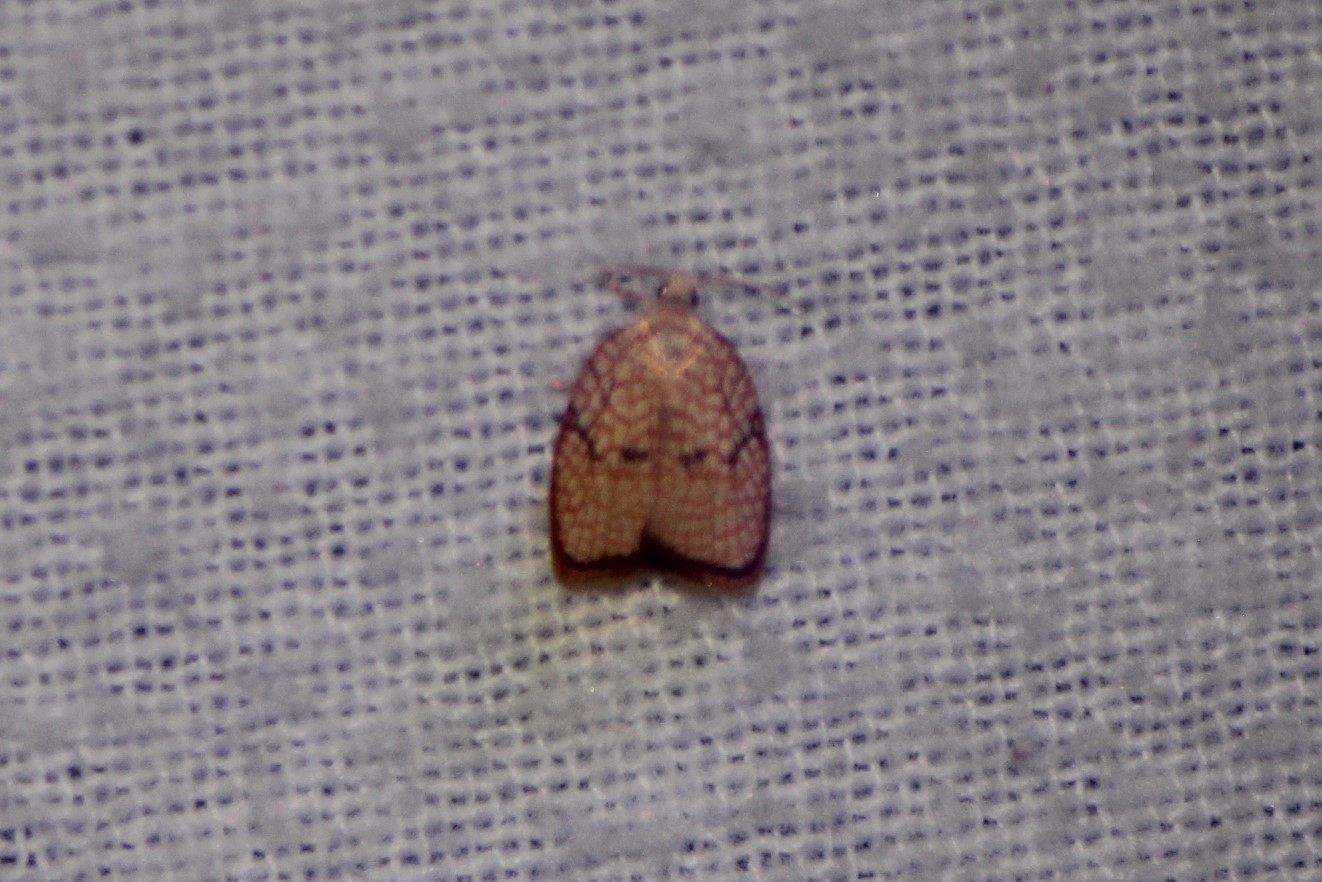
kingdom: Animalia
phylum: Arthropoda
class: Insecta
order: Lepidoptera
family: Tortricidae
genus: Acleris
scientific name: Acleris forsskaleana
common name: Maple button
